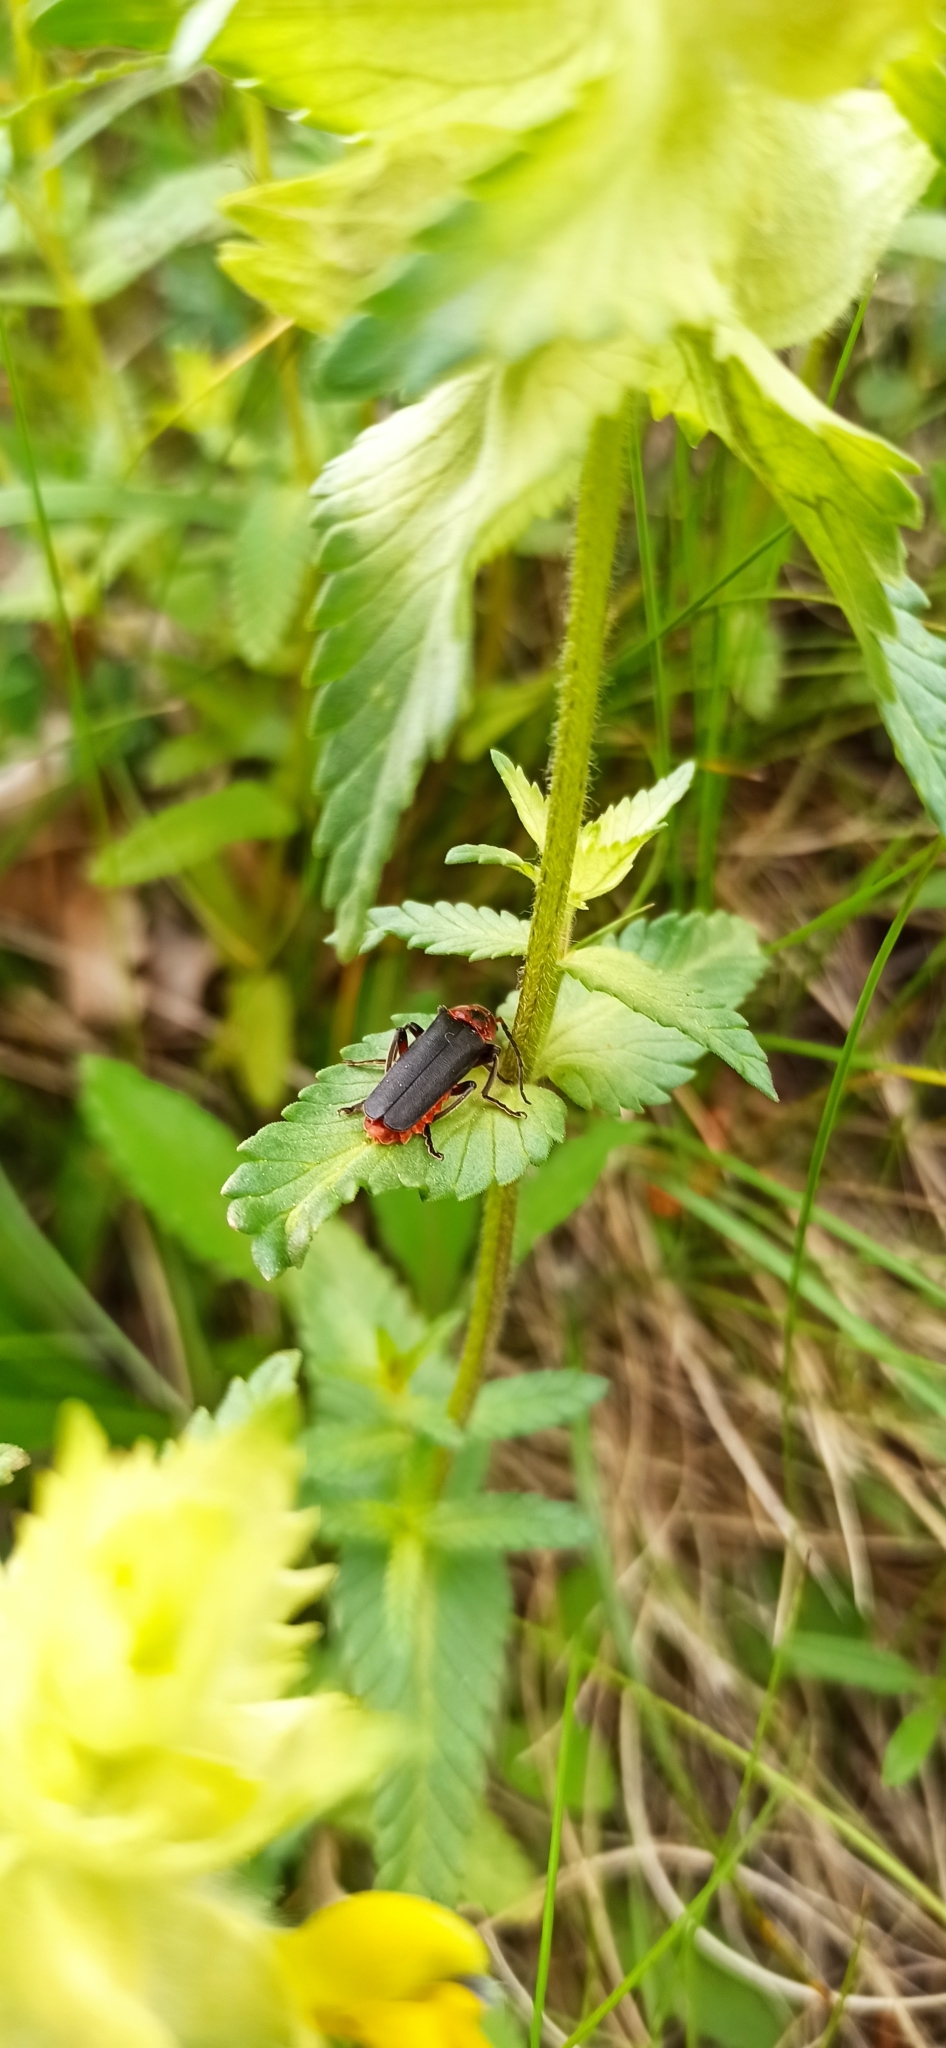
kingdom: Animalia
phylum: Arthropoda
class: Insecta
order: Coleoptera
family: Cantharidae
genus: Cantharis
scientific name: Cantharis rustica
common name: Soldier beetle
